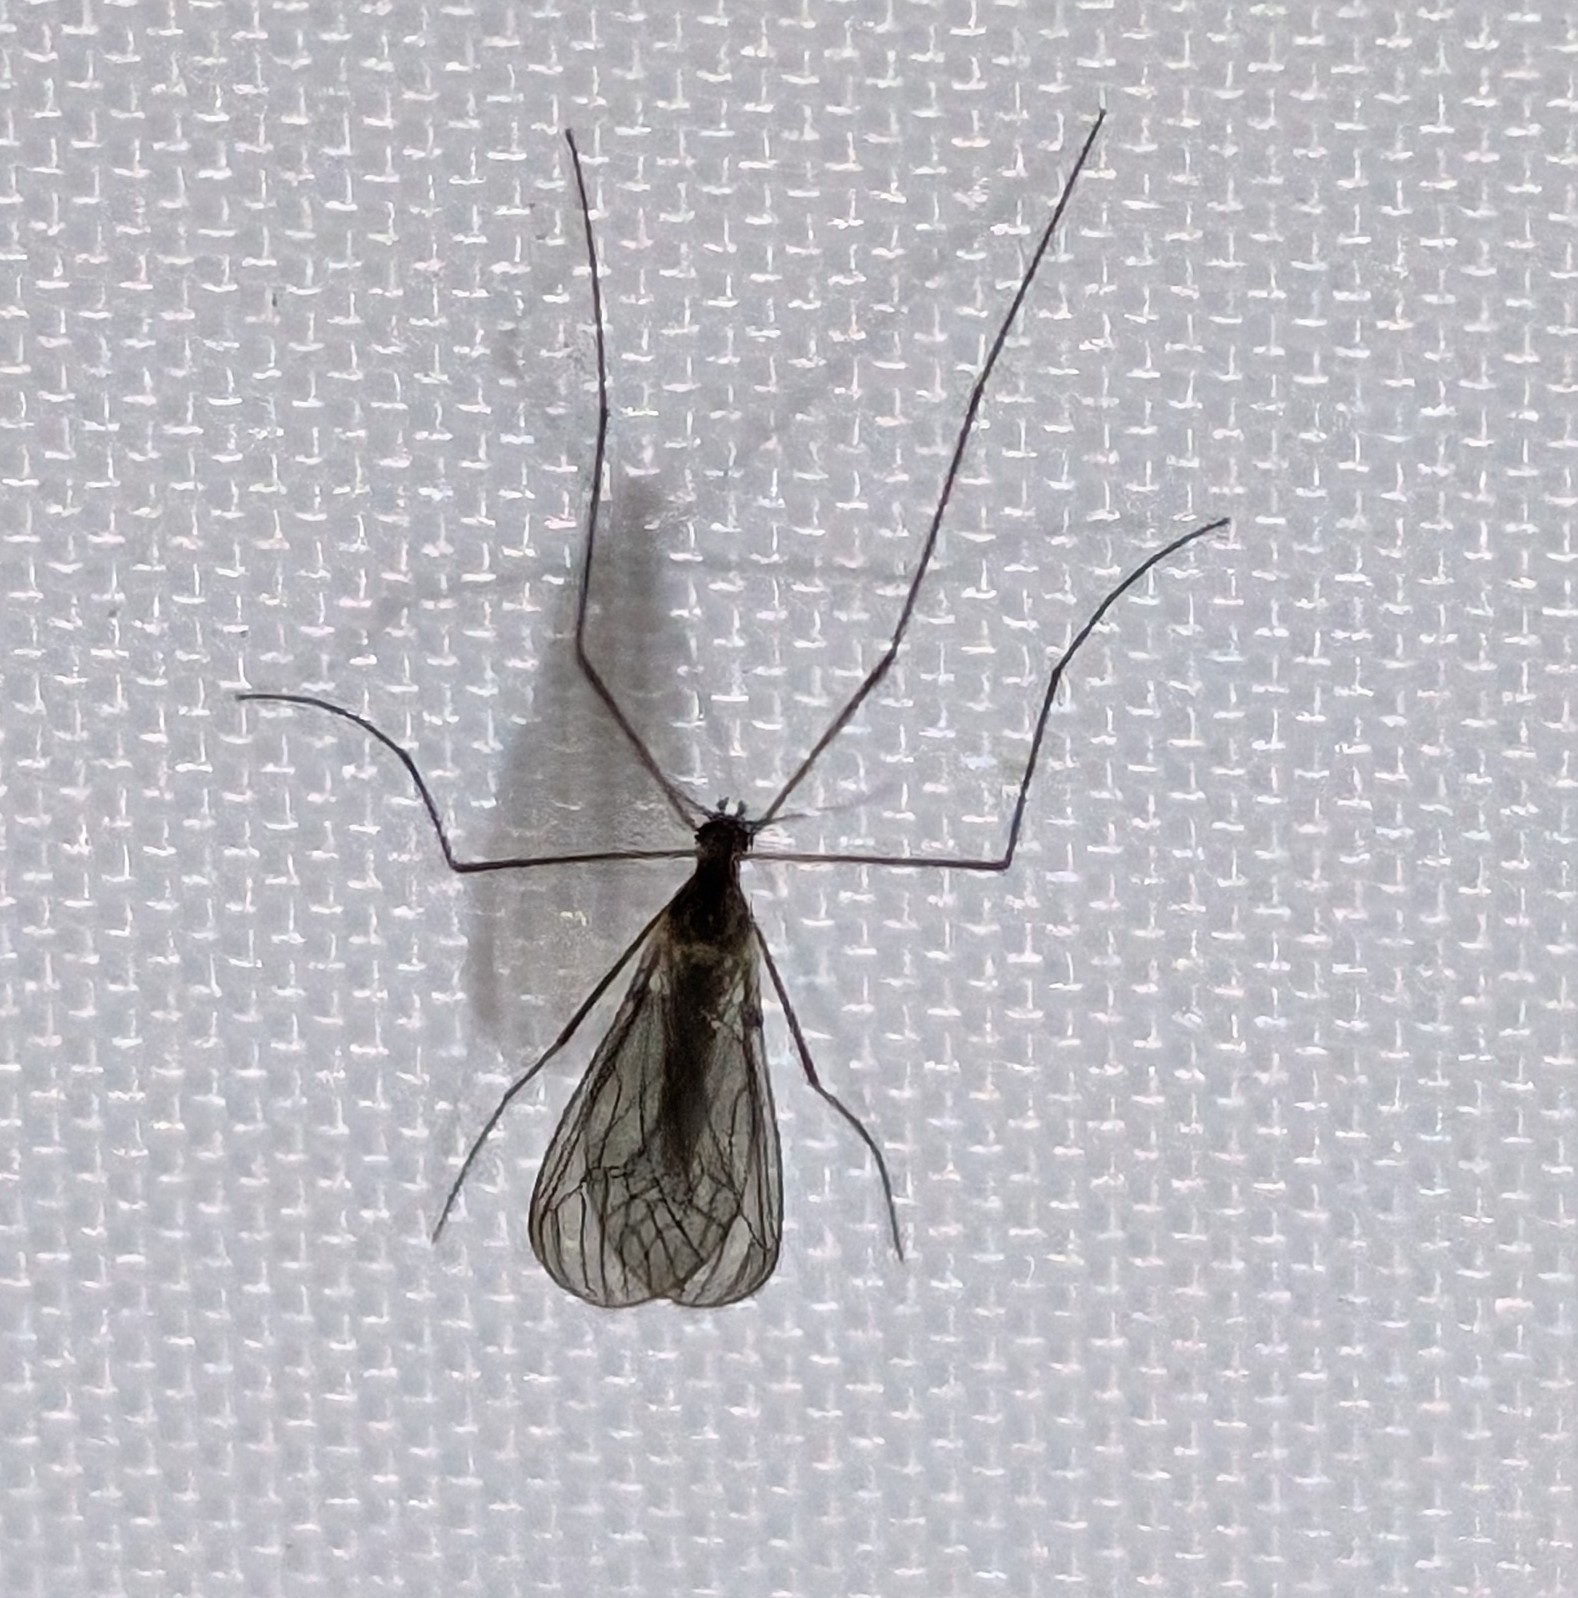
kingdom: Animalia
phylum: Arthropoda
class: Insecta
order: Diptera
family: Trichoceridae
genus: Trichocera
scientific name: Trichocera annulata
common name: Winter gnat
